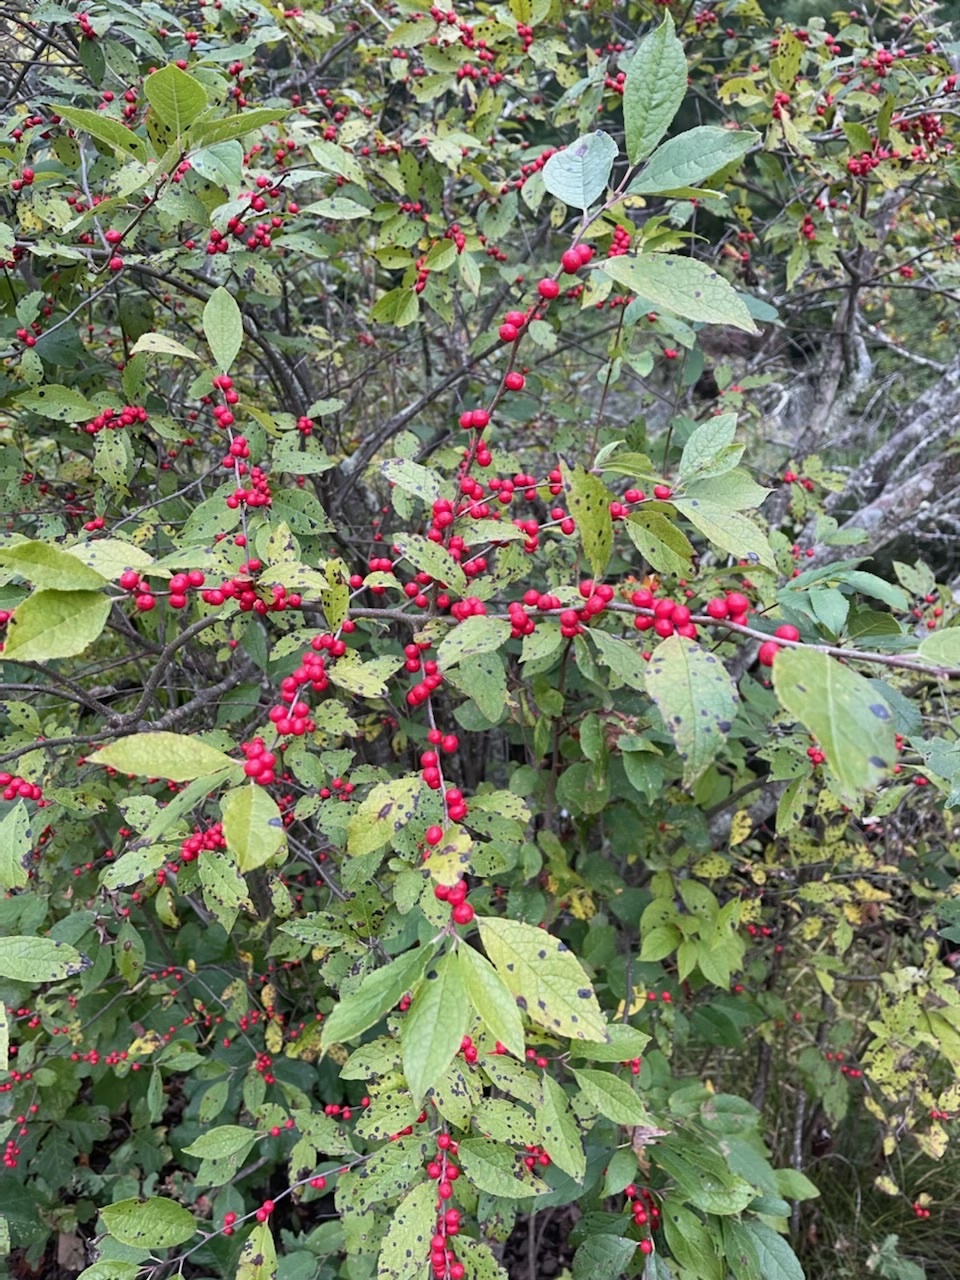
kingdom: Plantae
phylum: Tracheophyta
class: Magnoliopsida
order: Aquifoliales
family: Aquifoliaceae
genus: Ilex
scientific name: Ilex verticillata
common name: Virginia winterberry
